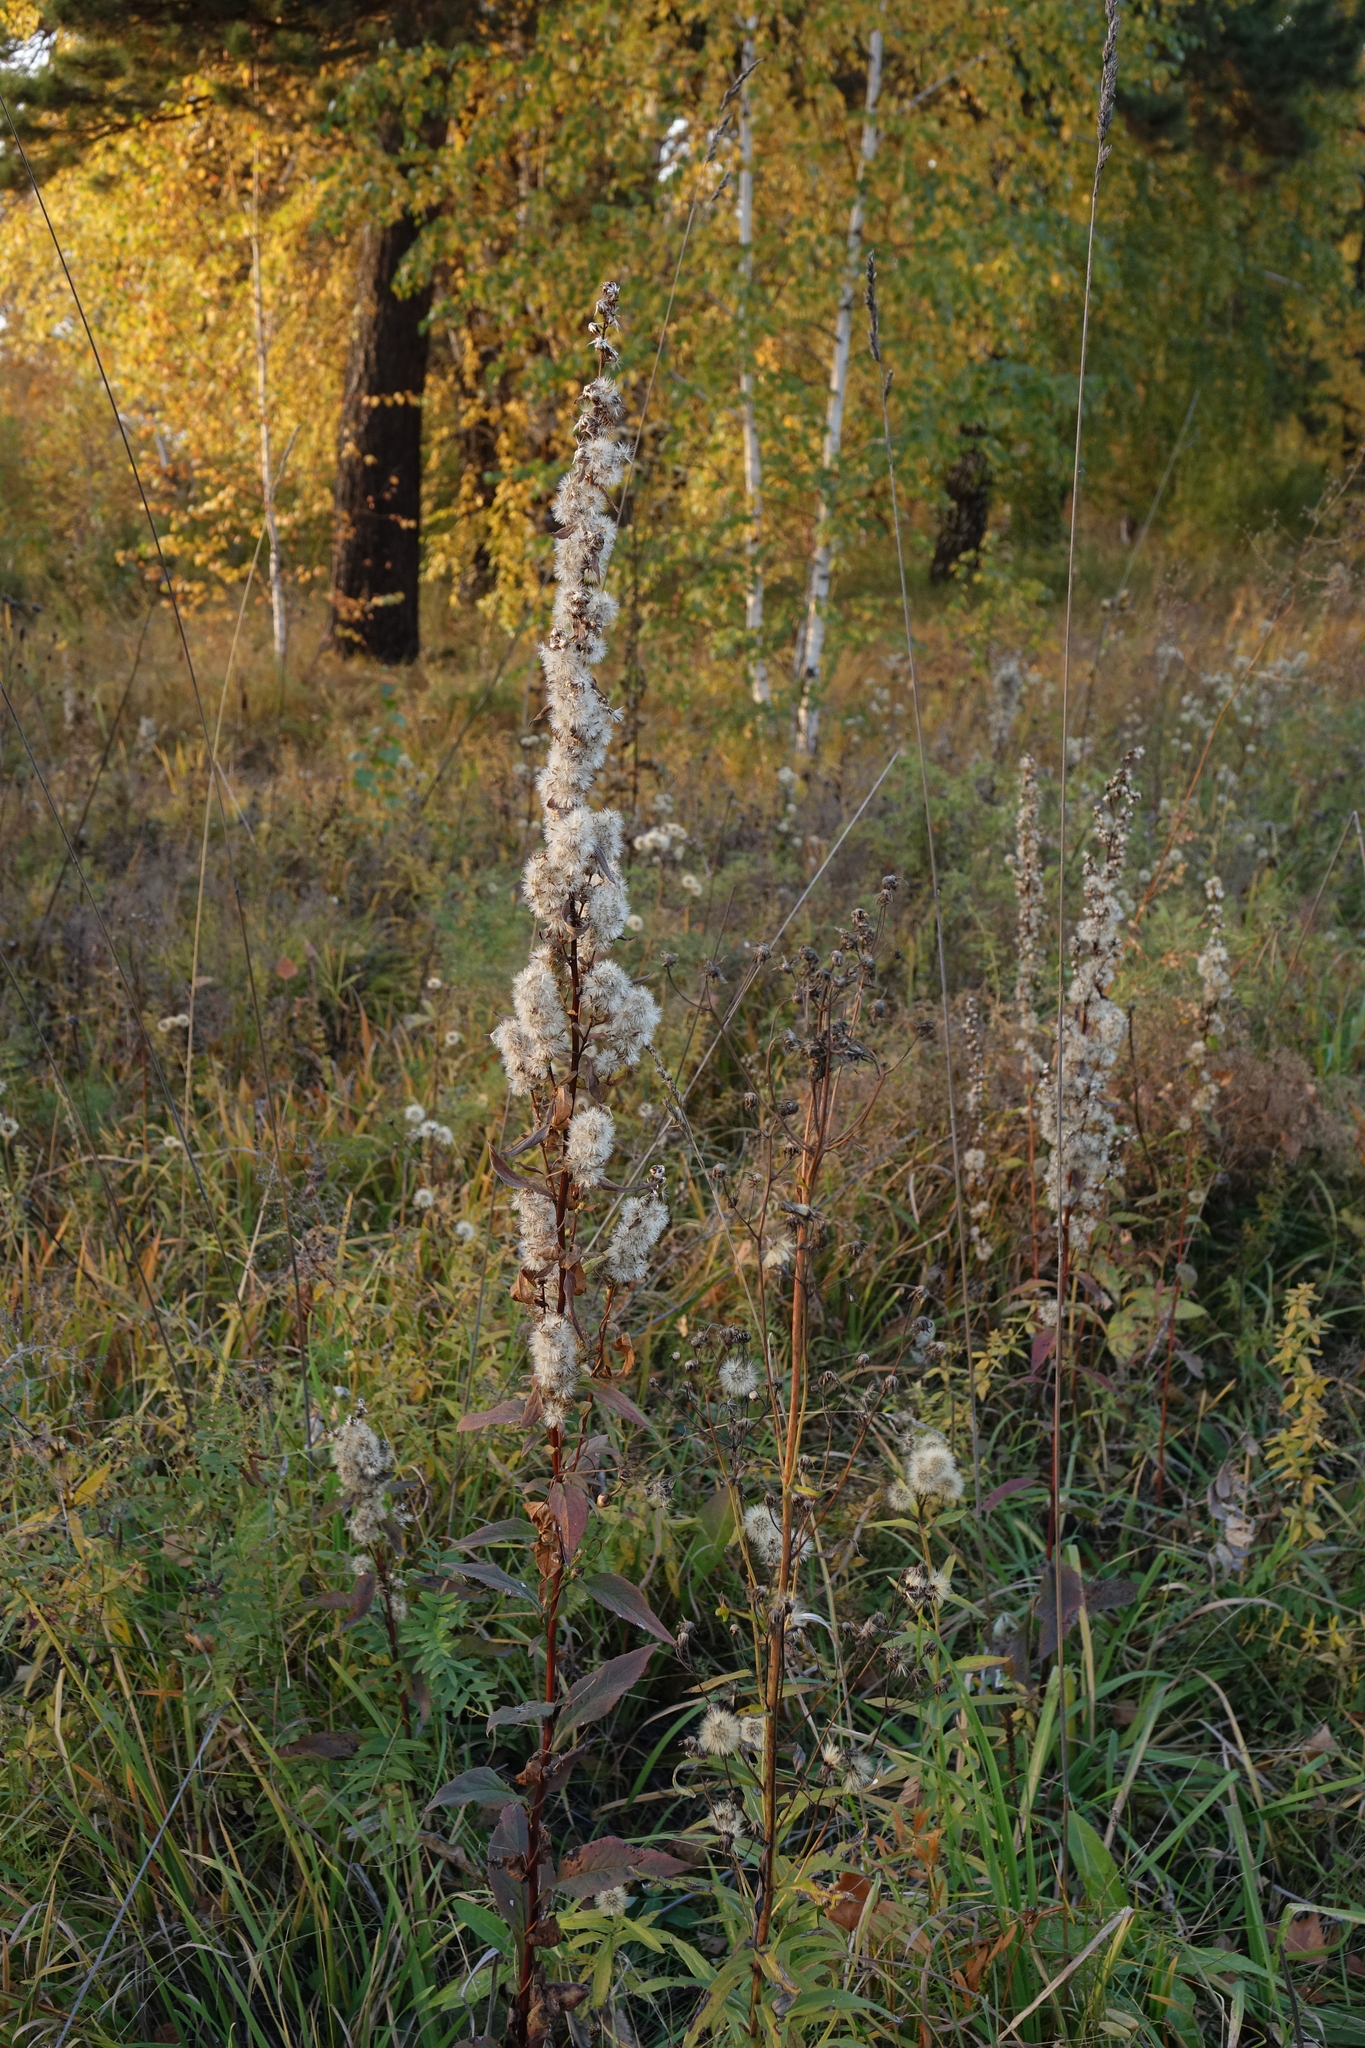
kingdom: Plantae
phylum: Tracheophyta
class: Magnoliopsida
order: Asterales
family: Asteraceae
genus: Solidago
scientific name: Solidago virgaurea
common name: Goldenrod
